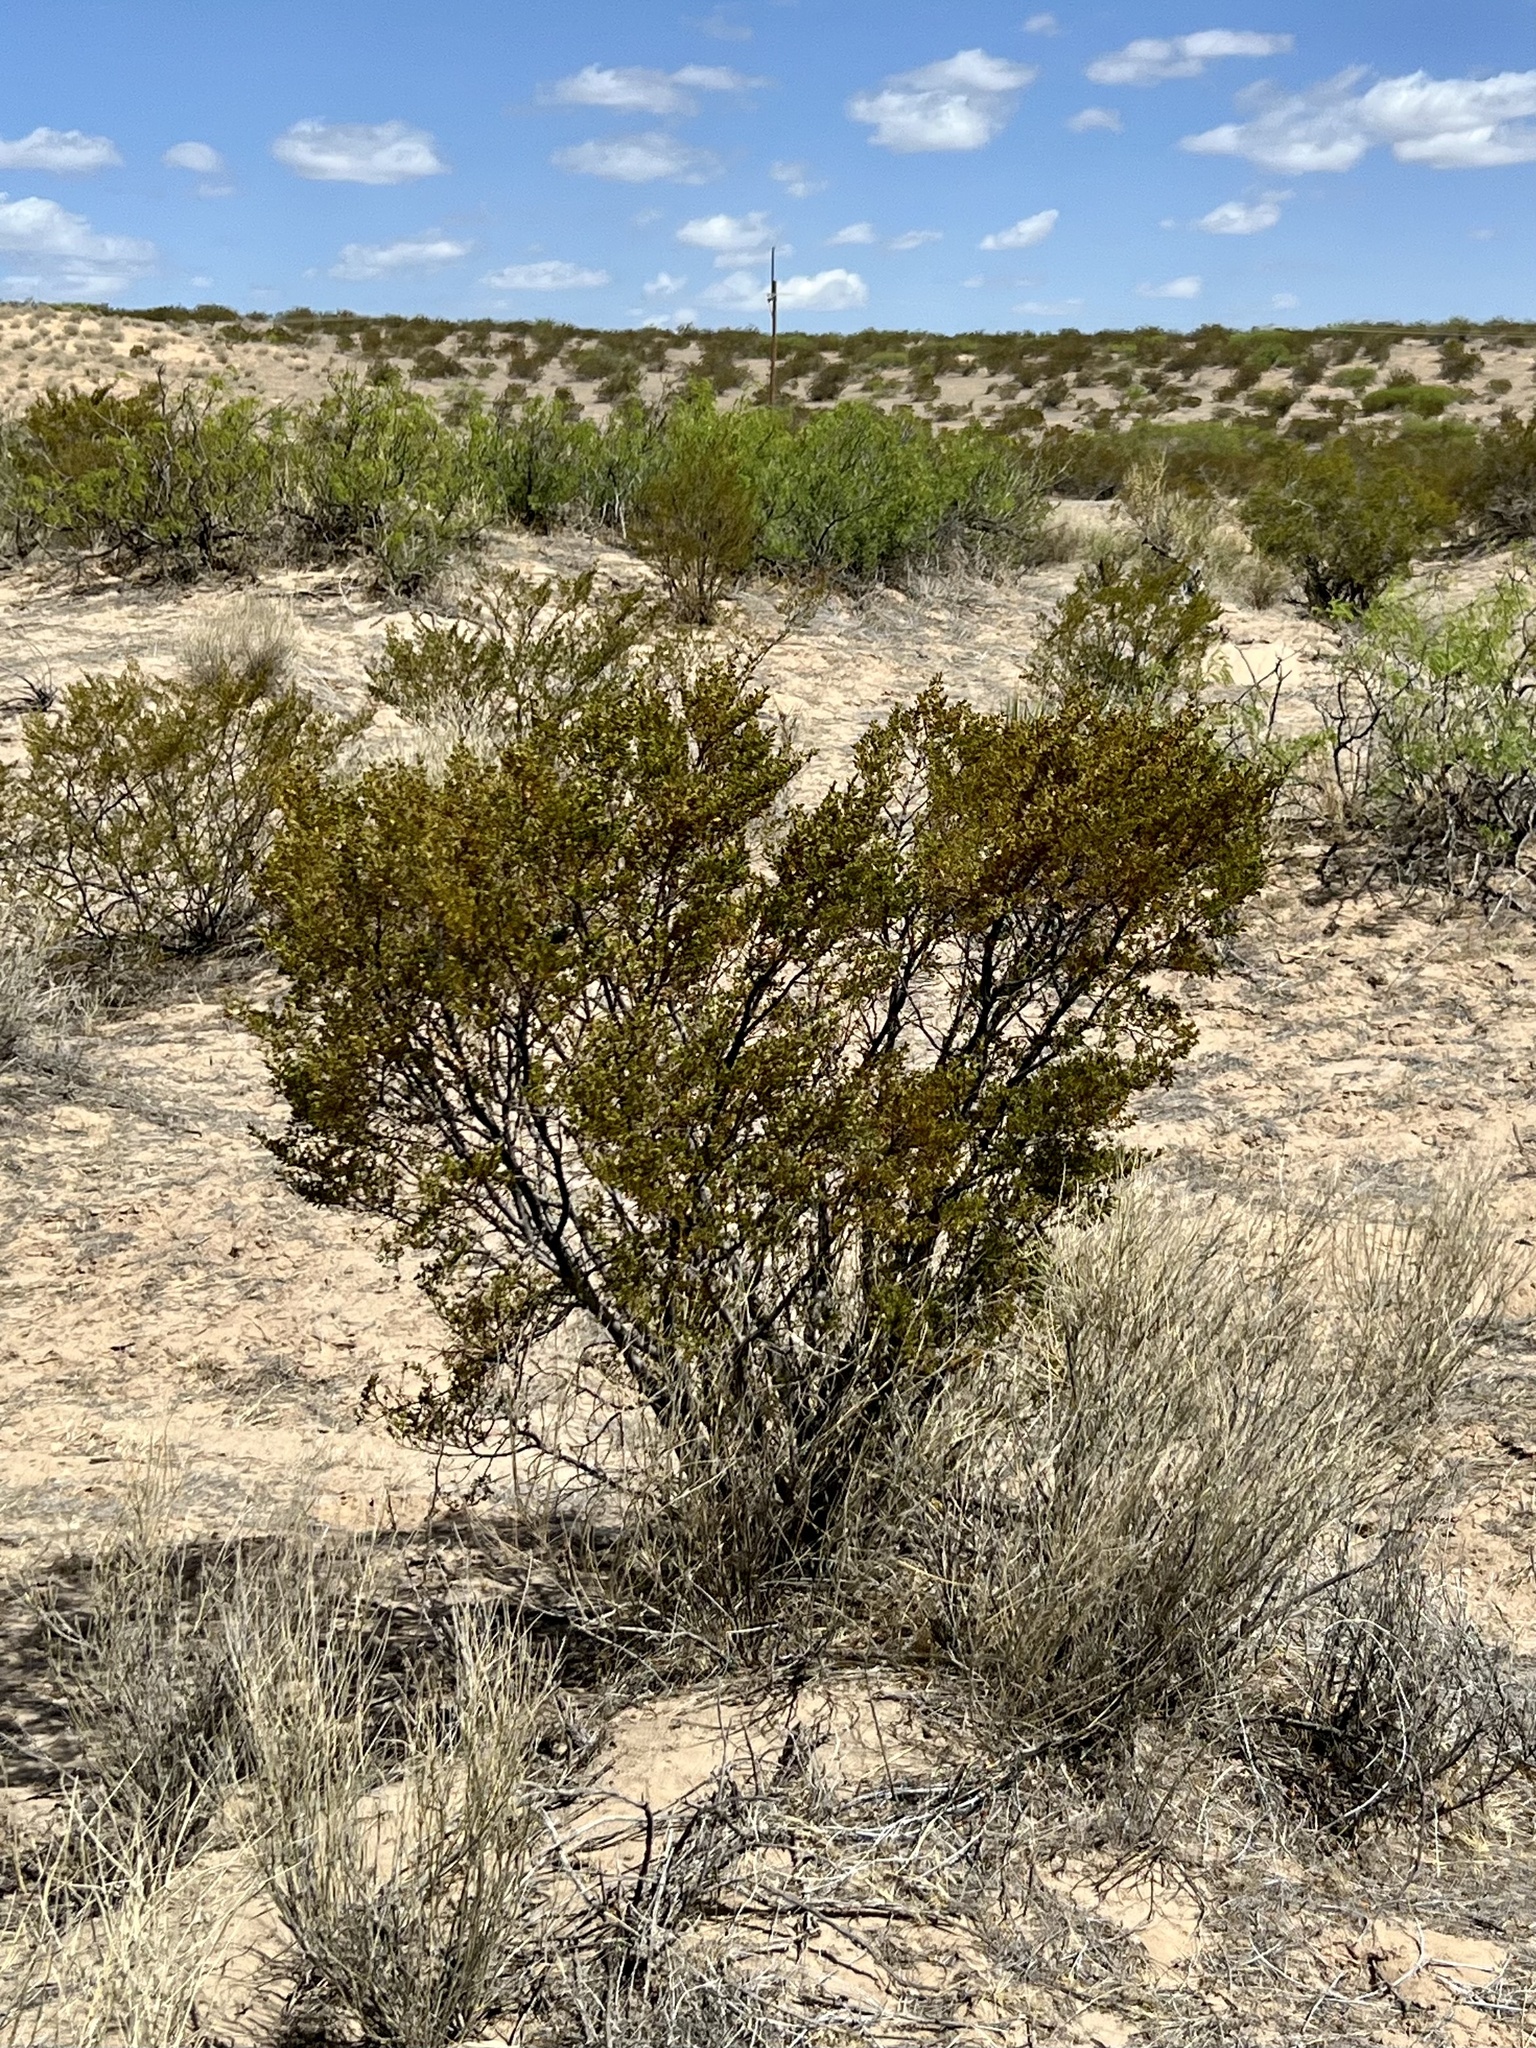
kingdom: Plantae
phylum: Tracheophyta
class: Magnoliopsida
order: Zygophyllales
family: Zygophyllaceae
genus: Larrea
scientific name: Larrea tridentata
